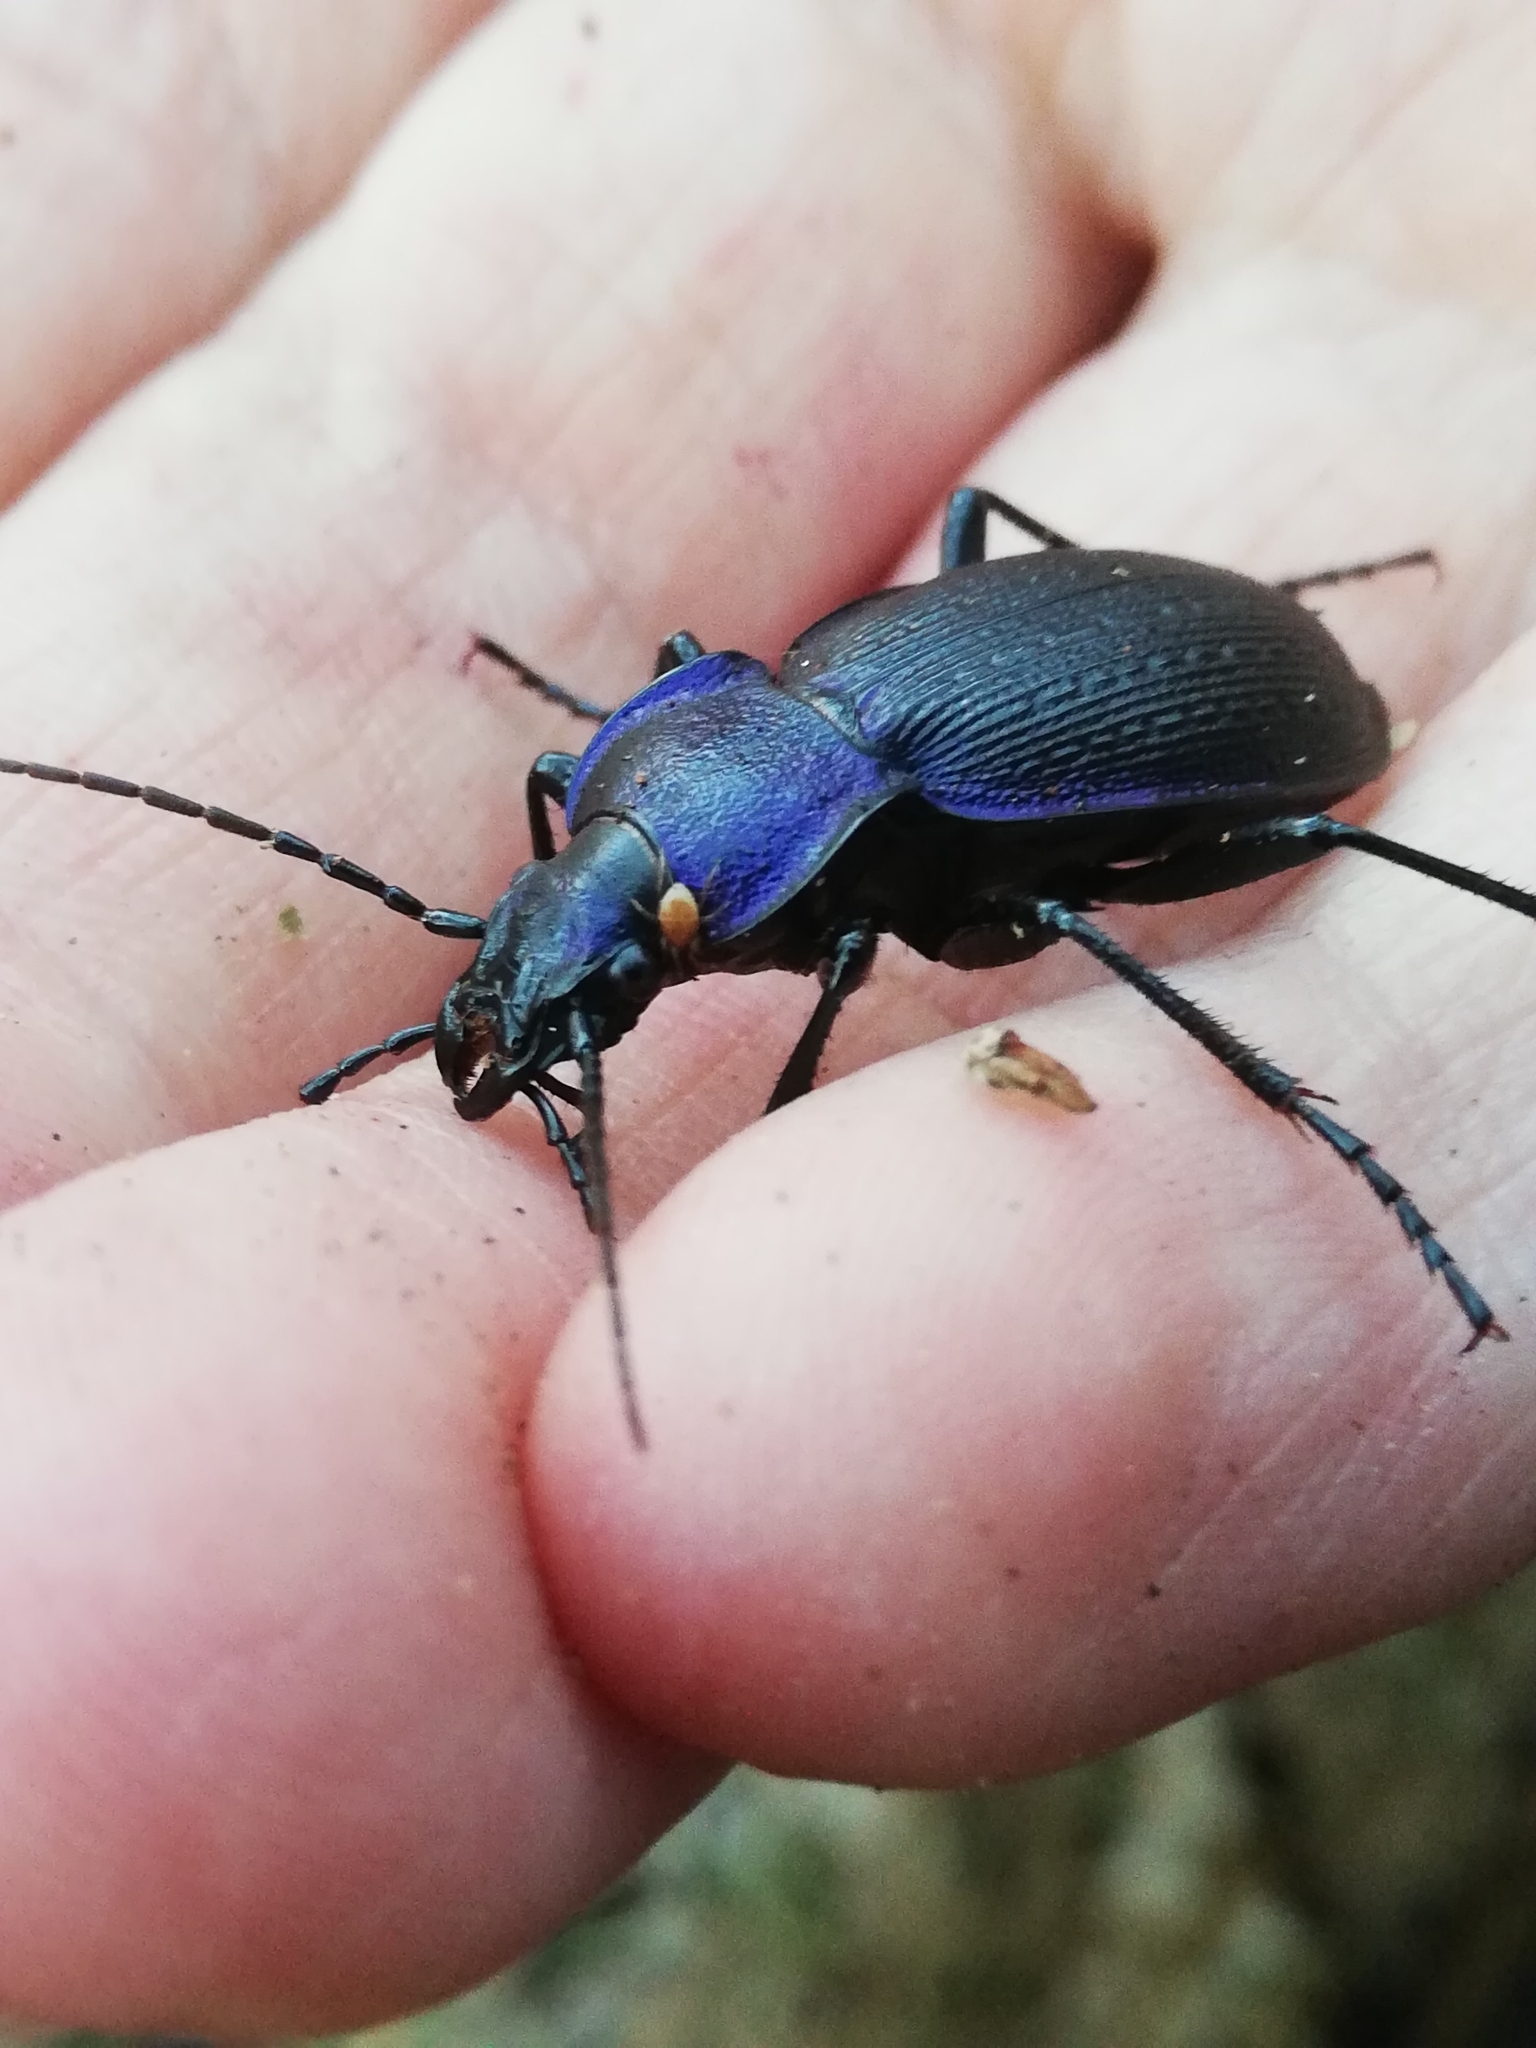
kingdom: Animalia
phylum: Arthropoda
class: Insecta
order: Coleoptera
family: Carabidae
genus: Carabus
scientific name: Carabus problematicus
